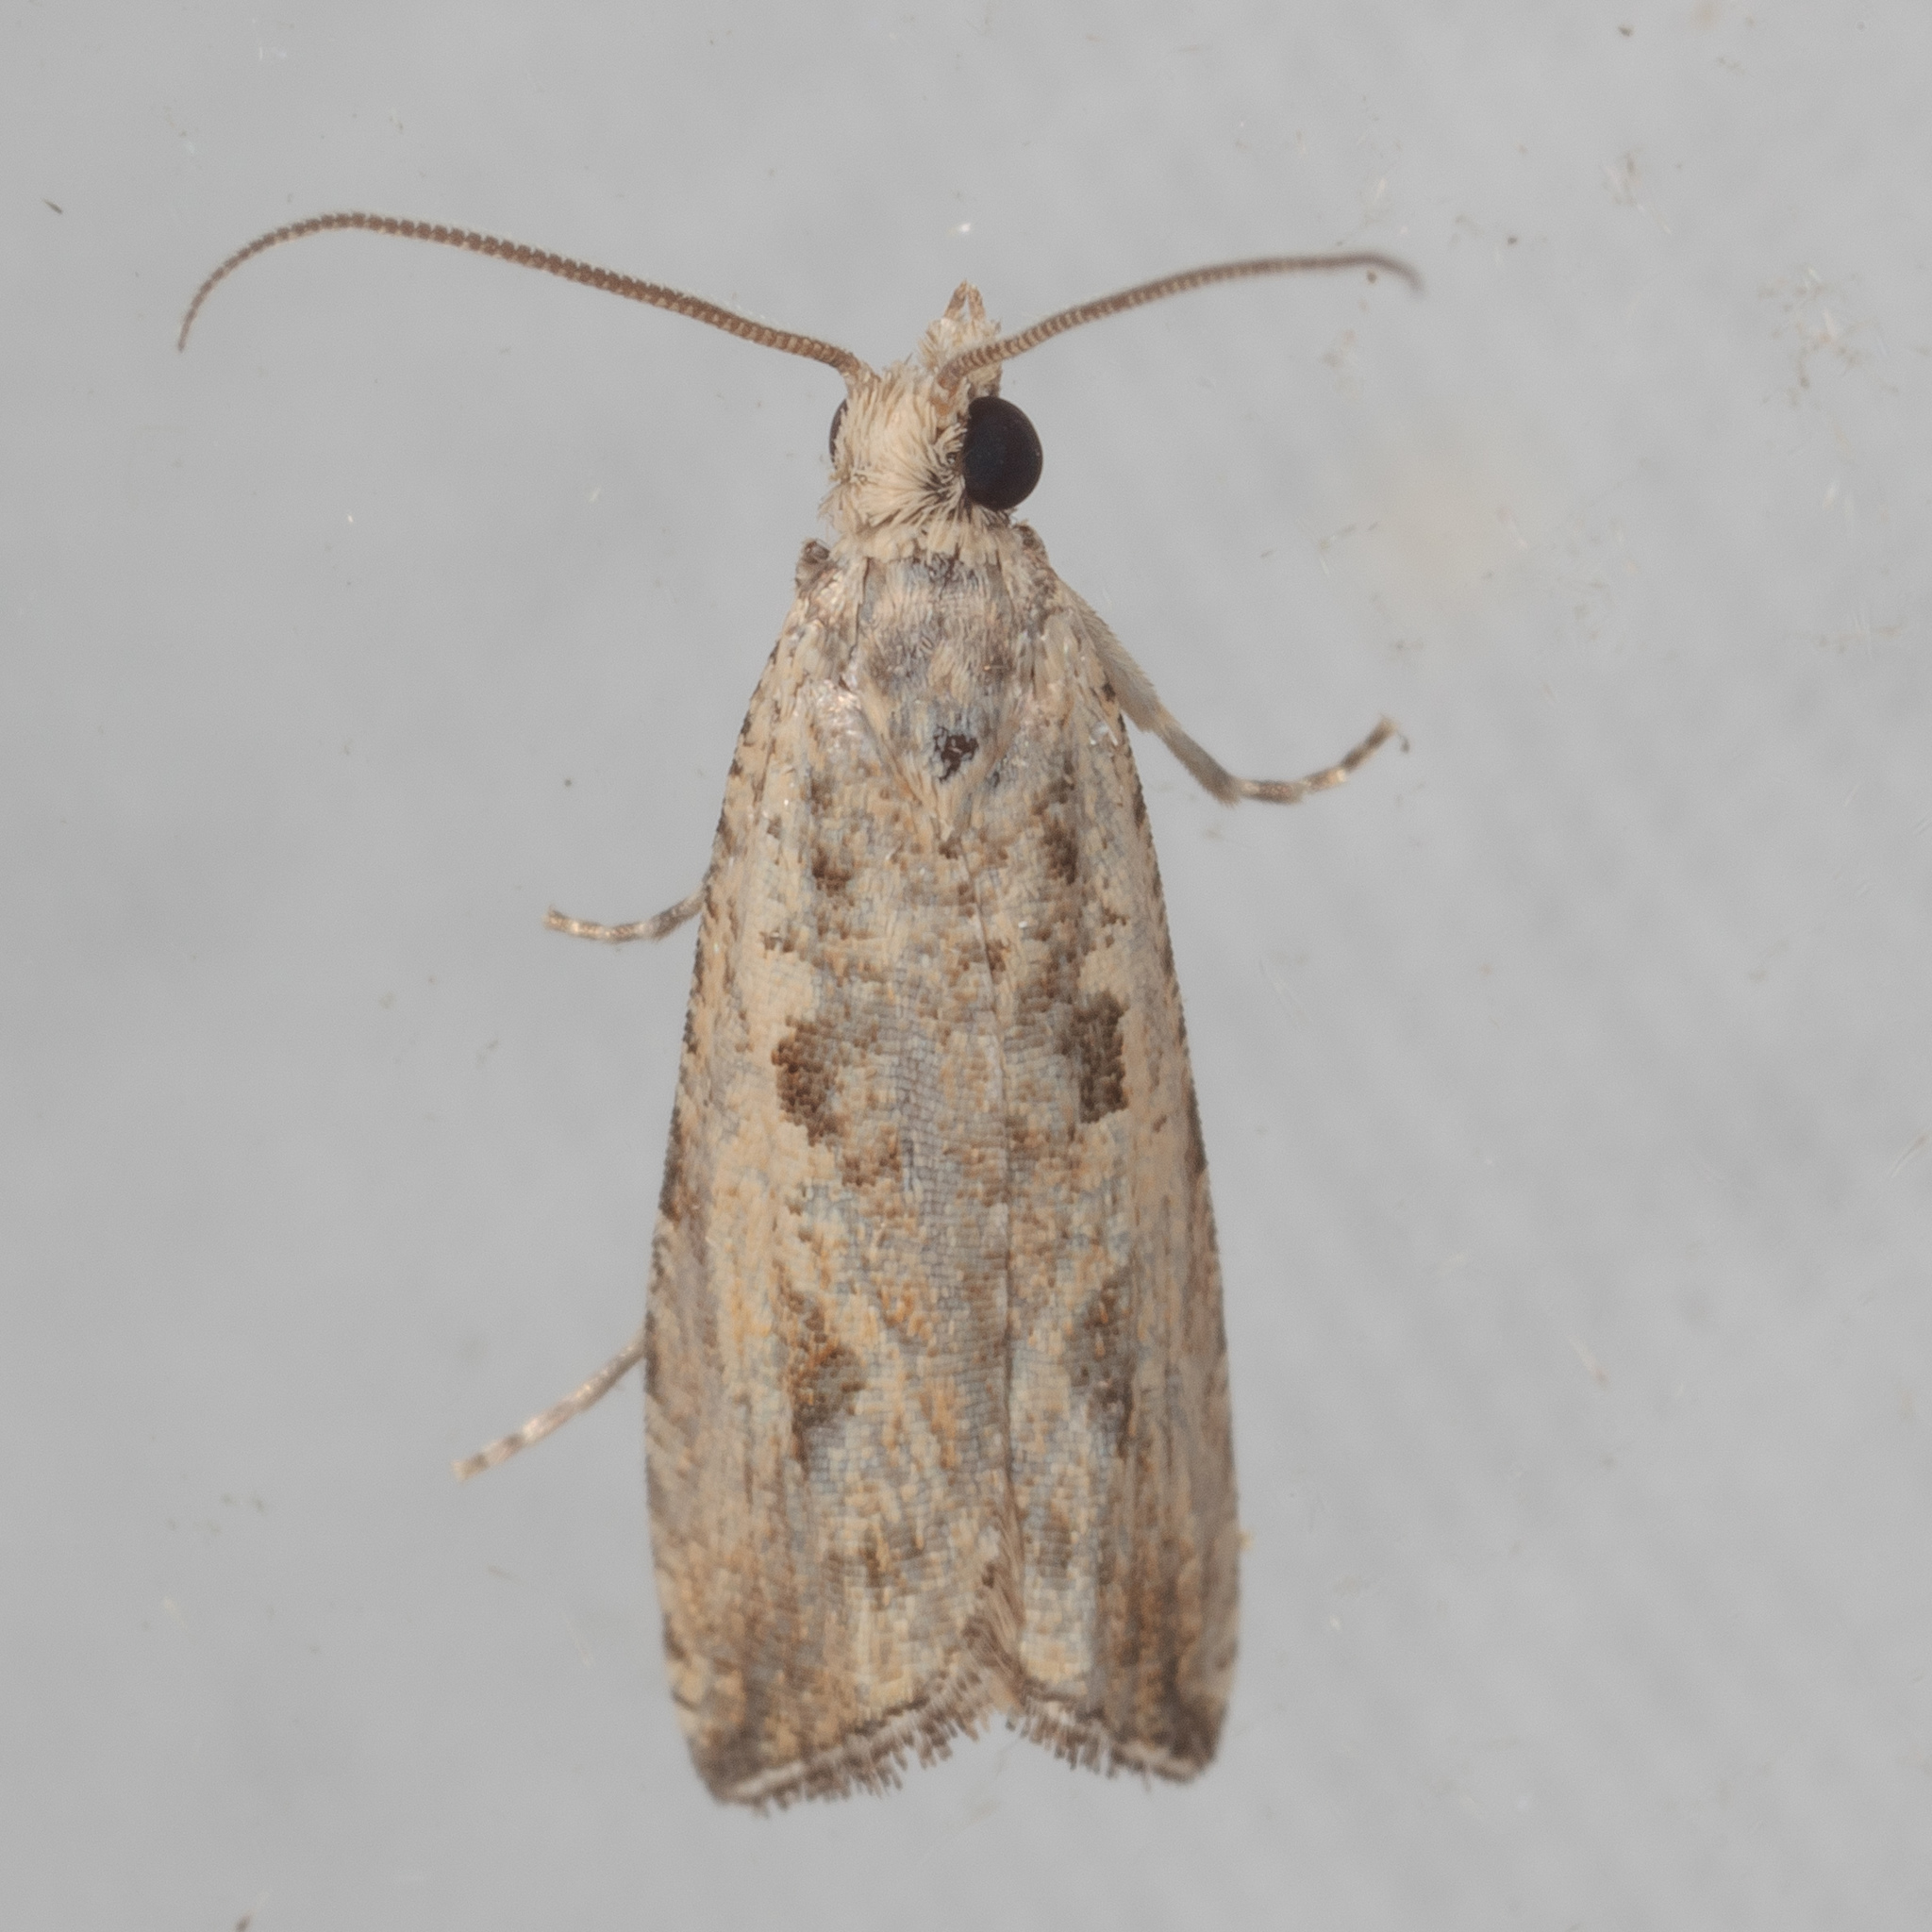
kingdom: Animalia
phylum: Arthropoda
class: Insecta
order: Lepidoptera
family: Tortricidae
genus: Bactra
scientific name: Bactra verutana
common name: Javelin moth
